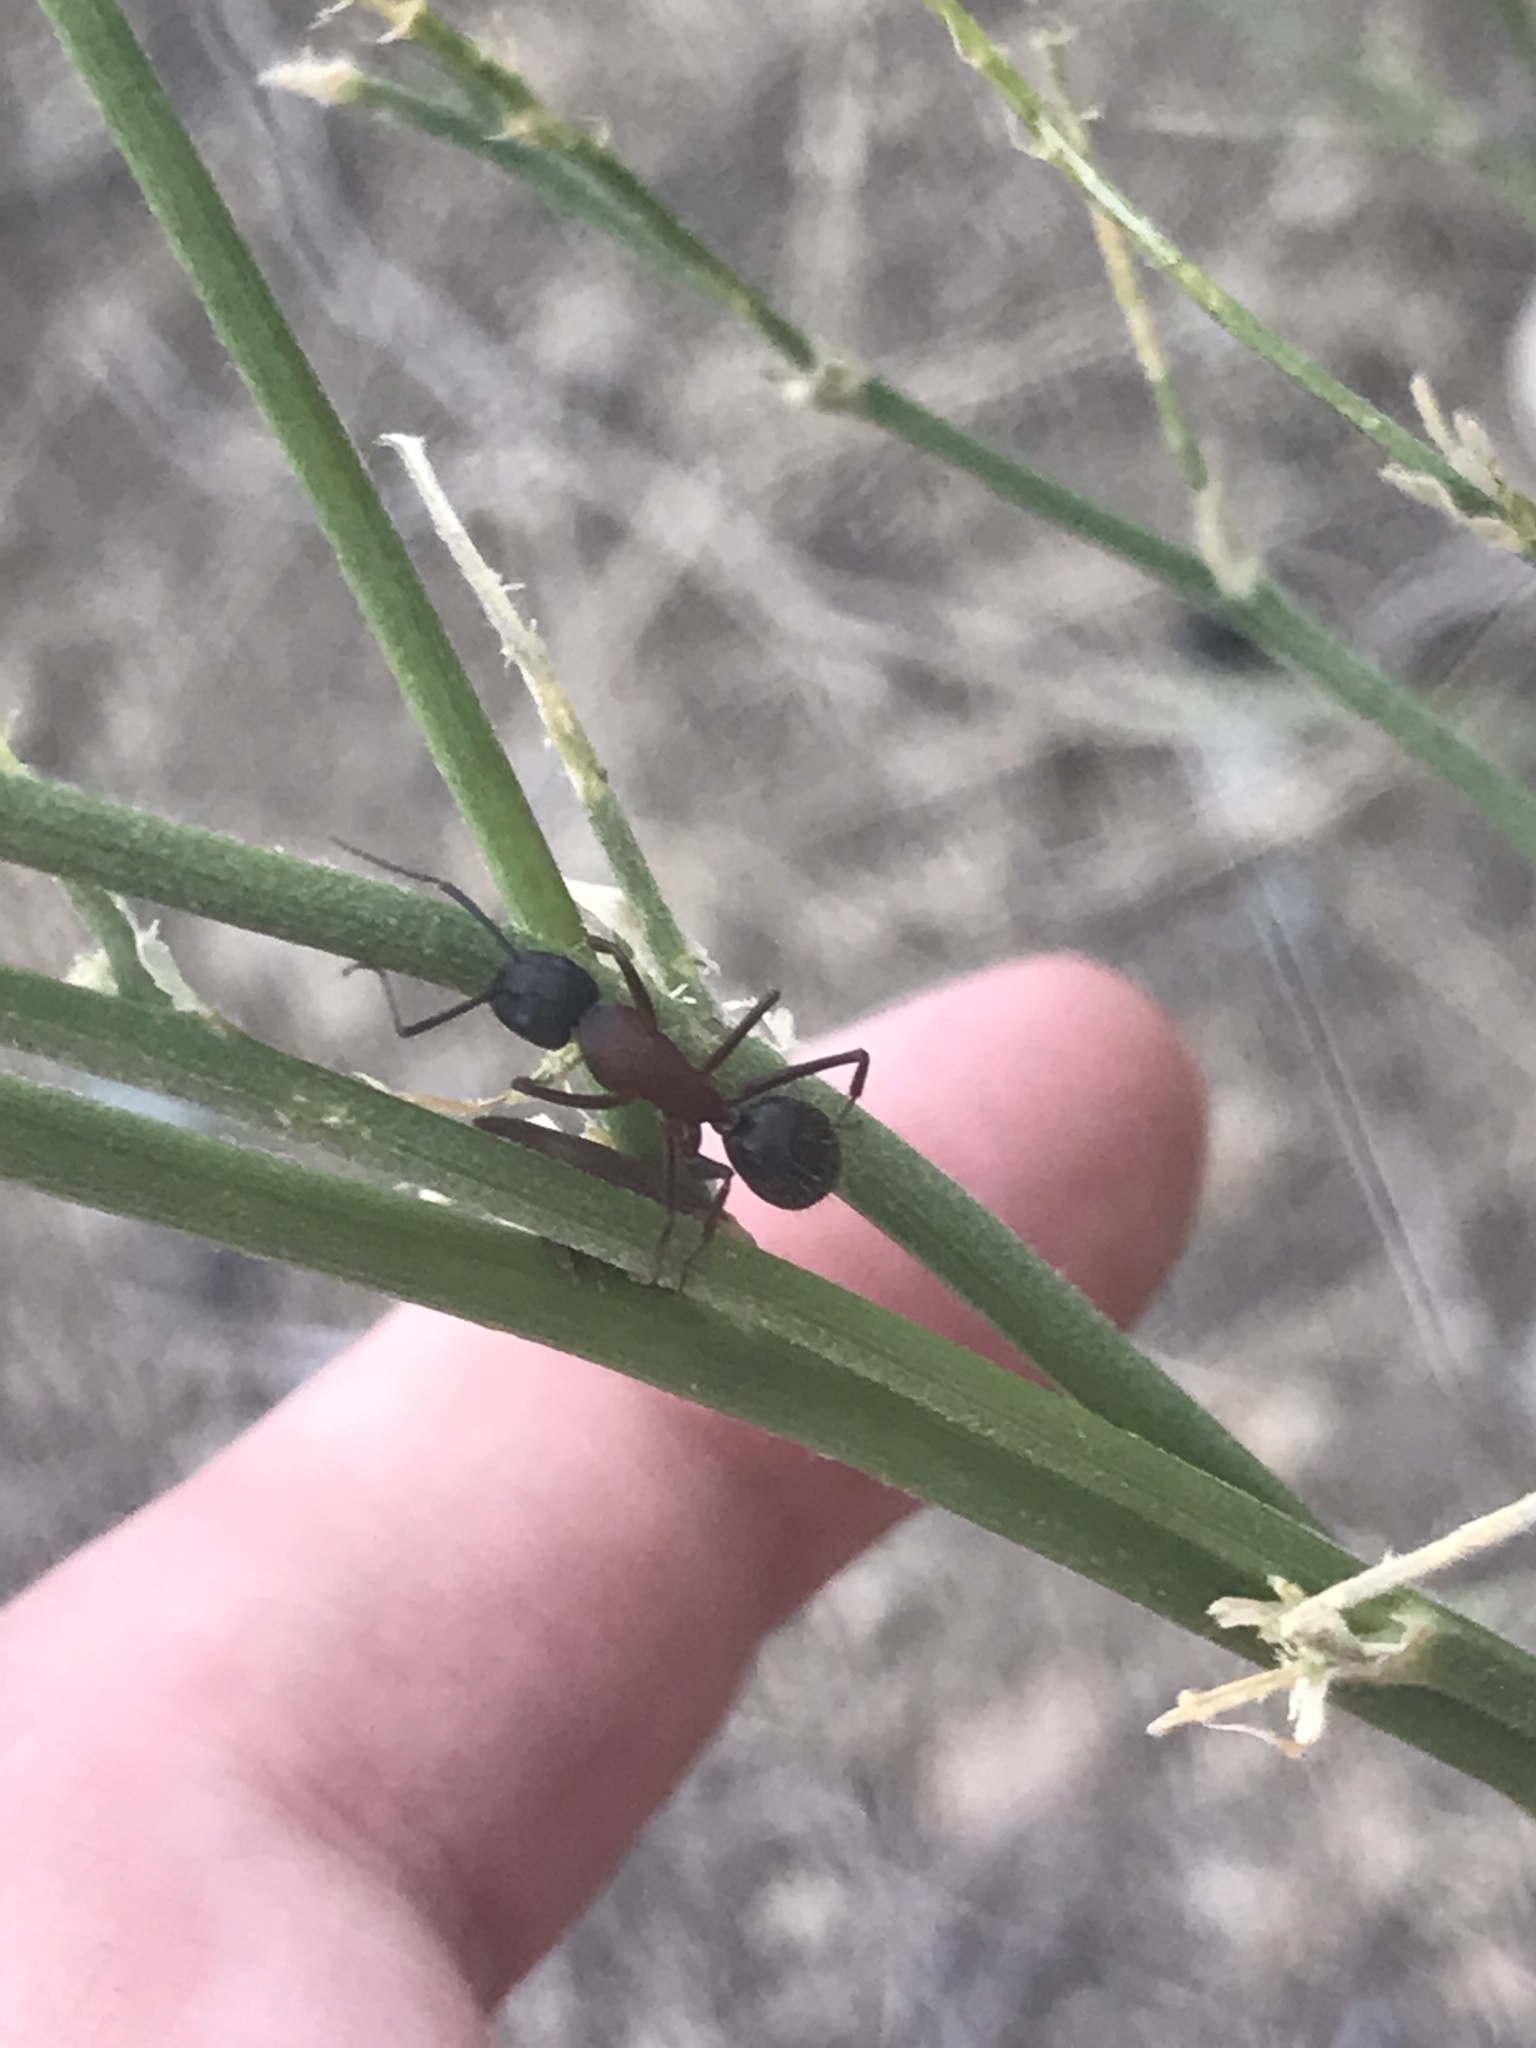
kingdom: Animalia
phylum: Arthropoda
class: Insecta
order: Hymenoptera
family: Formicidae
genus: Camponotus
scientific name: Camponotus vicinus
